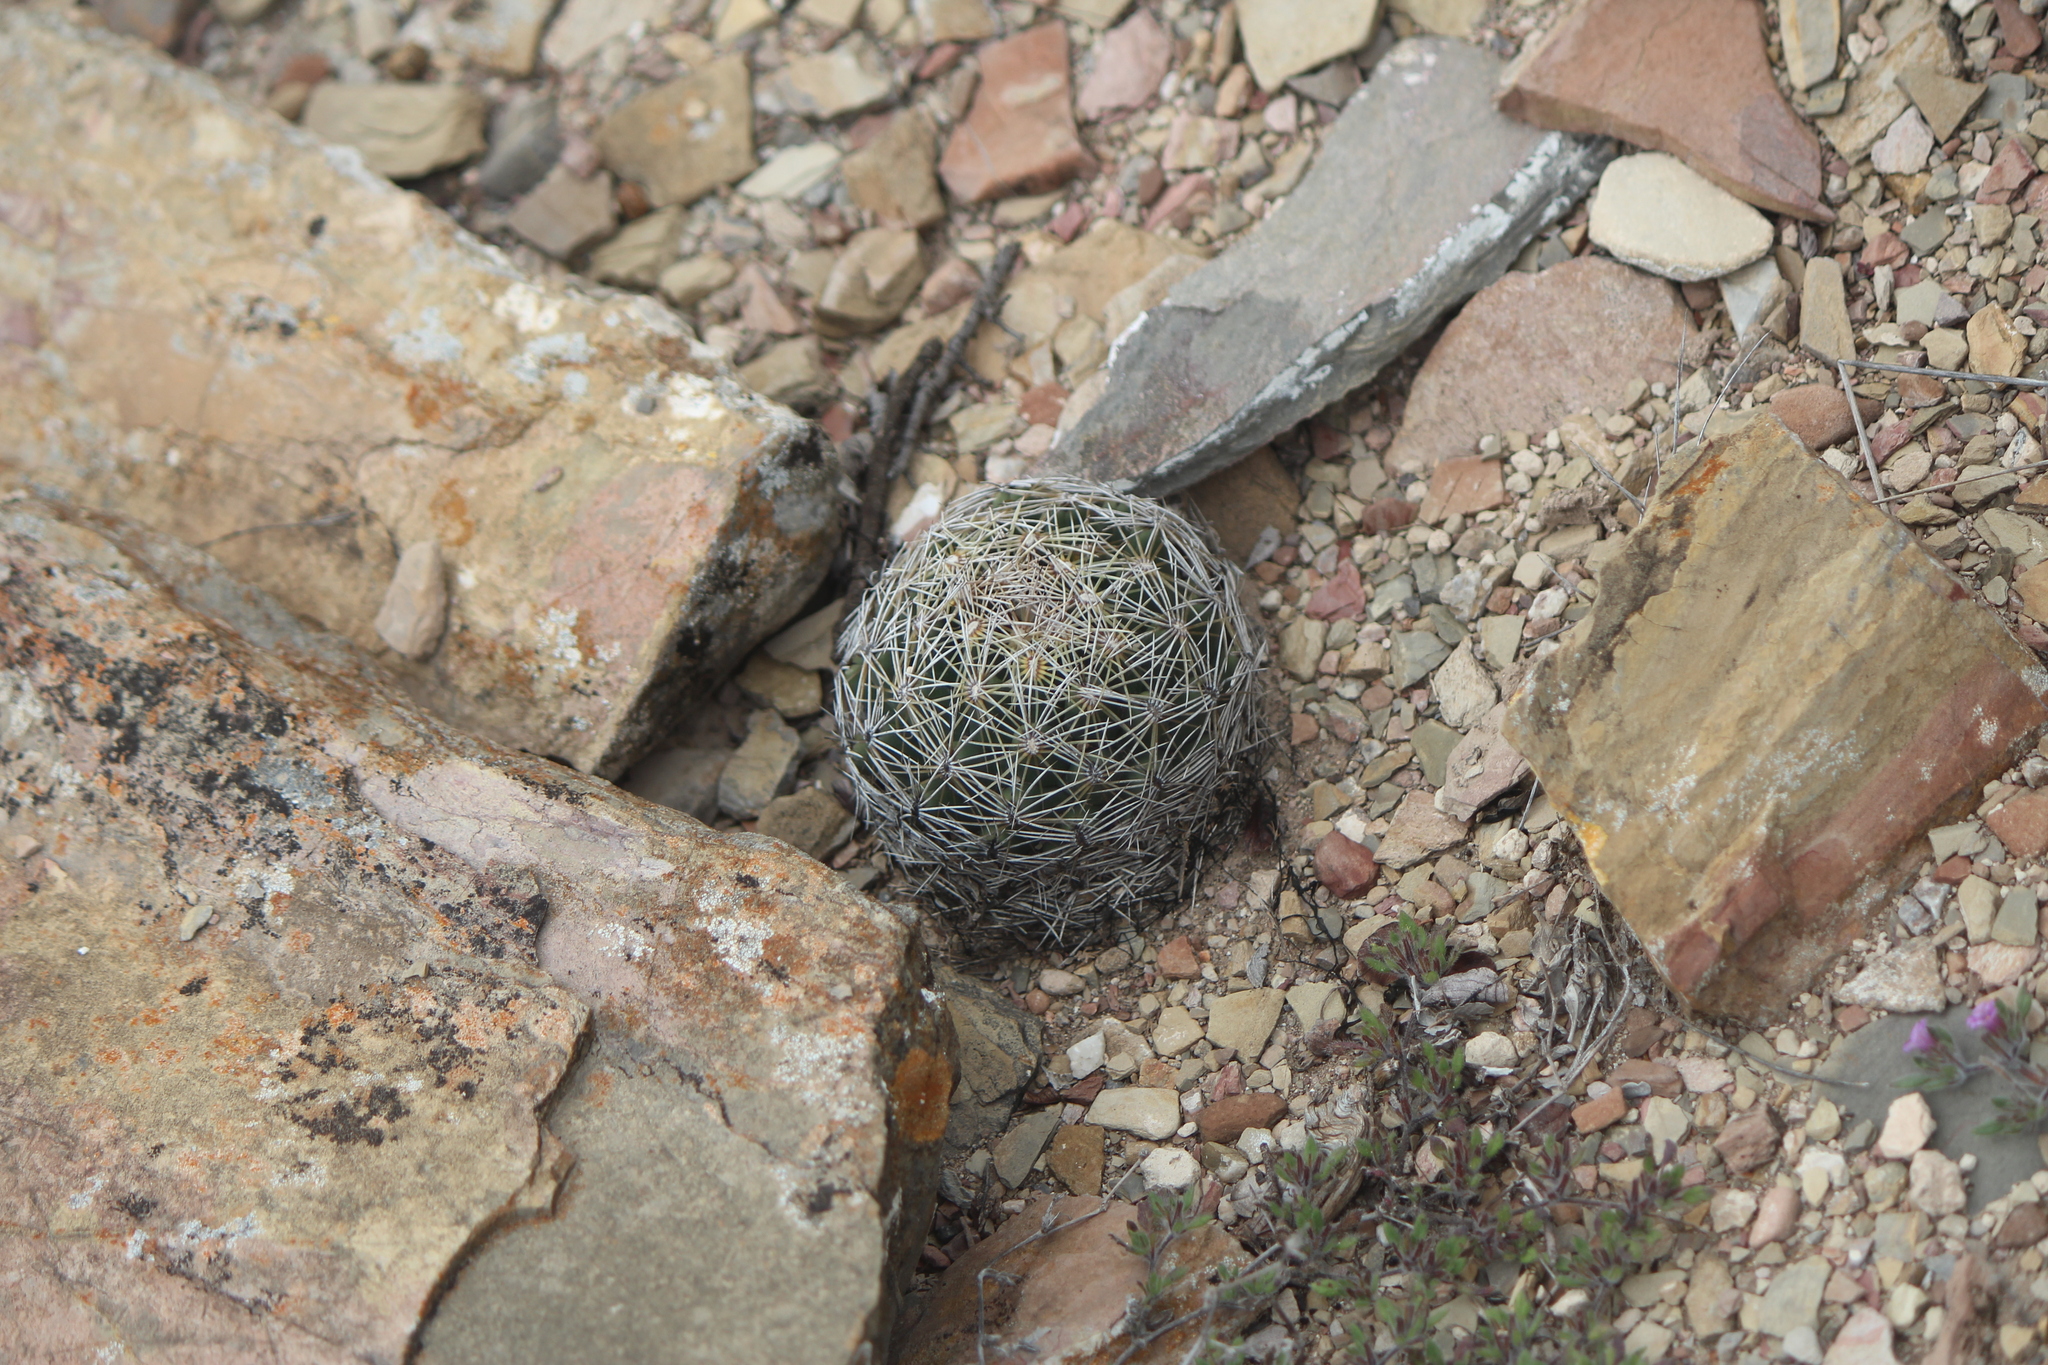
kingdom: Plantae
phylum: Tracheophyta
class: Magnoliopsida
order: Caryophyllales
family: Cactaceae
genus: Coryphantha
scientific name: Coryphantha cornifera
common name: Rhinoceros cactus
